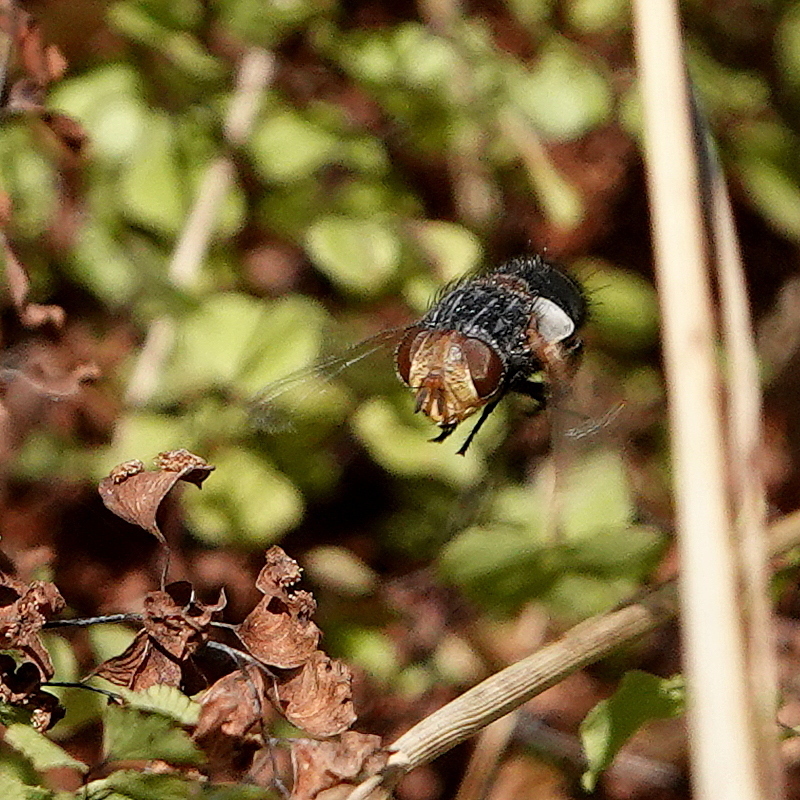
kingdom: Animalia
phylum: Arthropoda
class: Insecta
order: Diptera
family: Tachinidae
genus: Eurygastropsis
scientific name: Eurygastropsis tasmaniae
